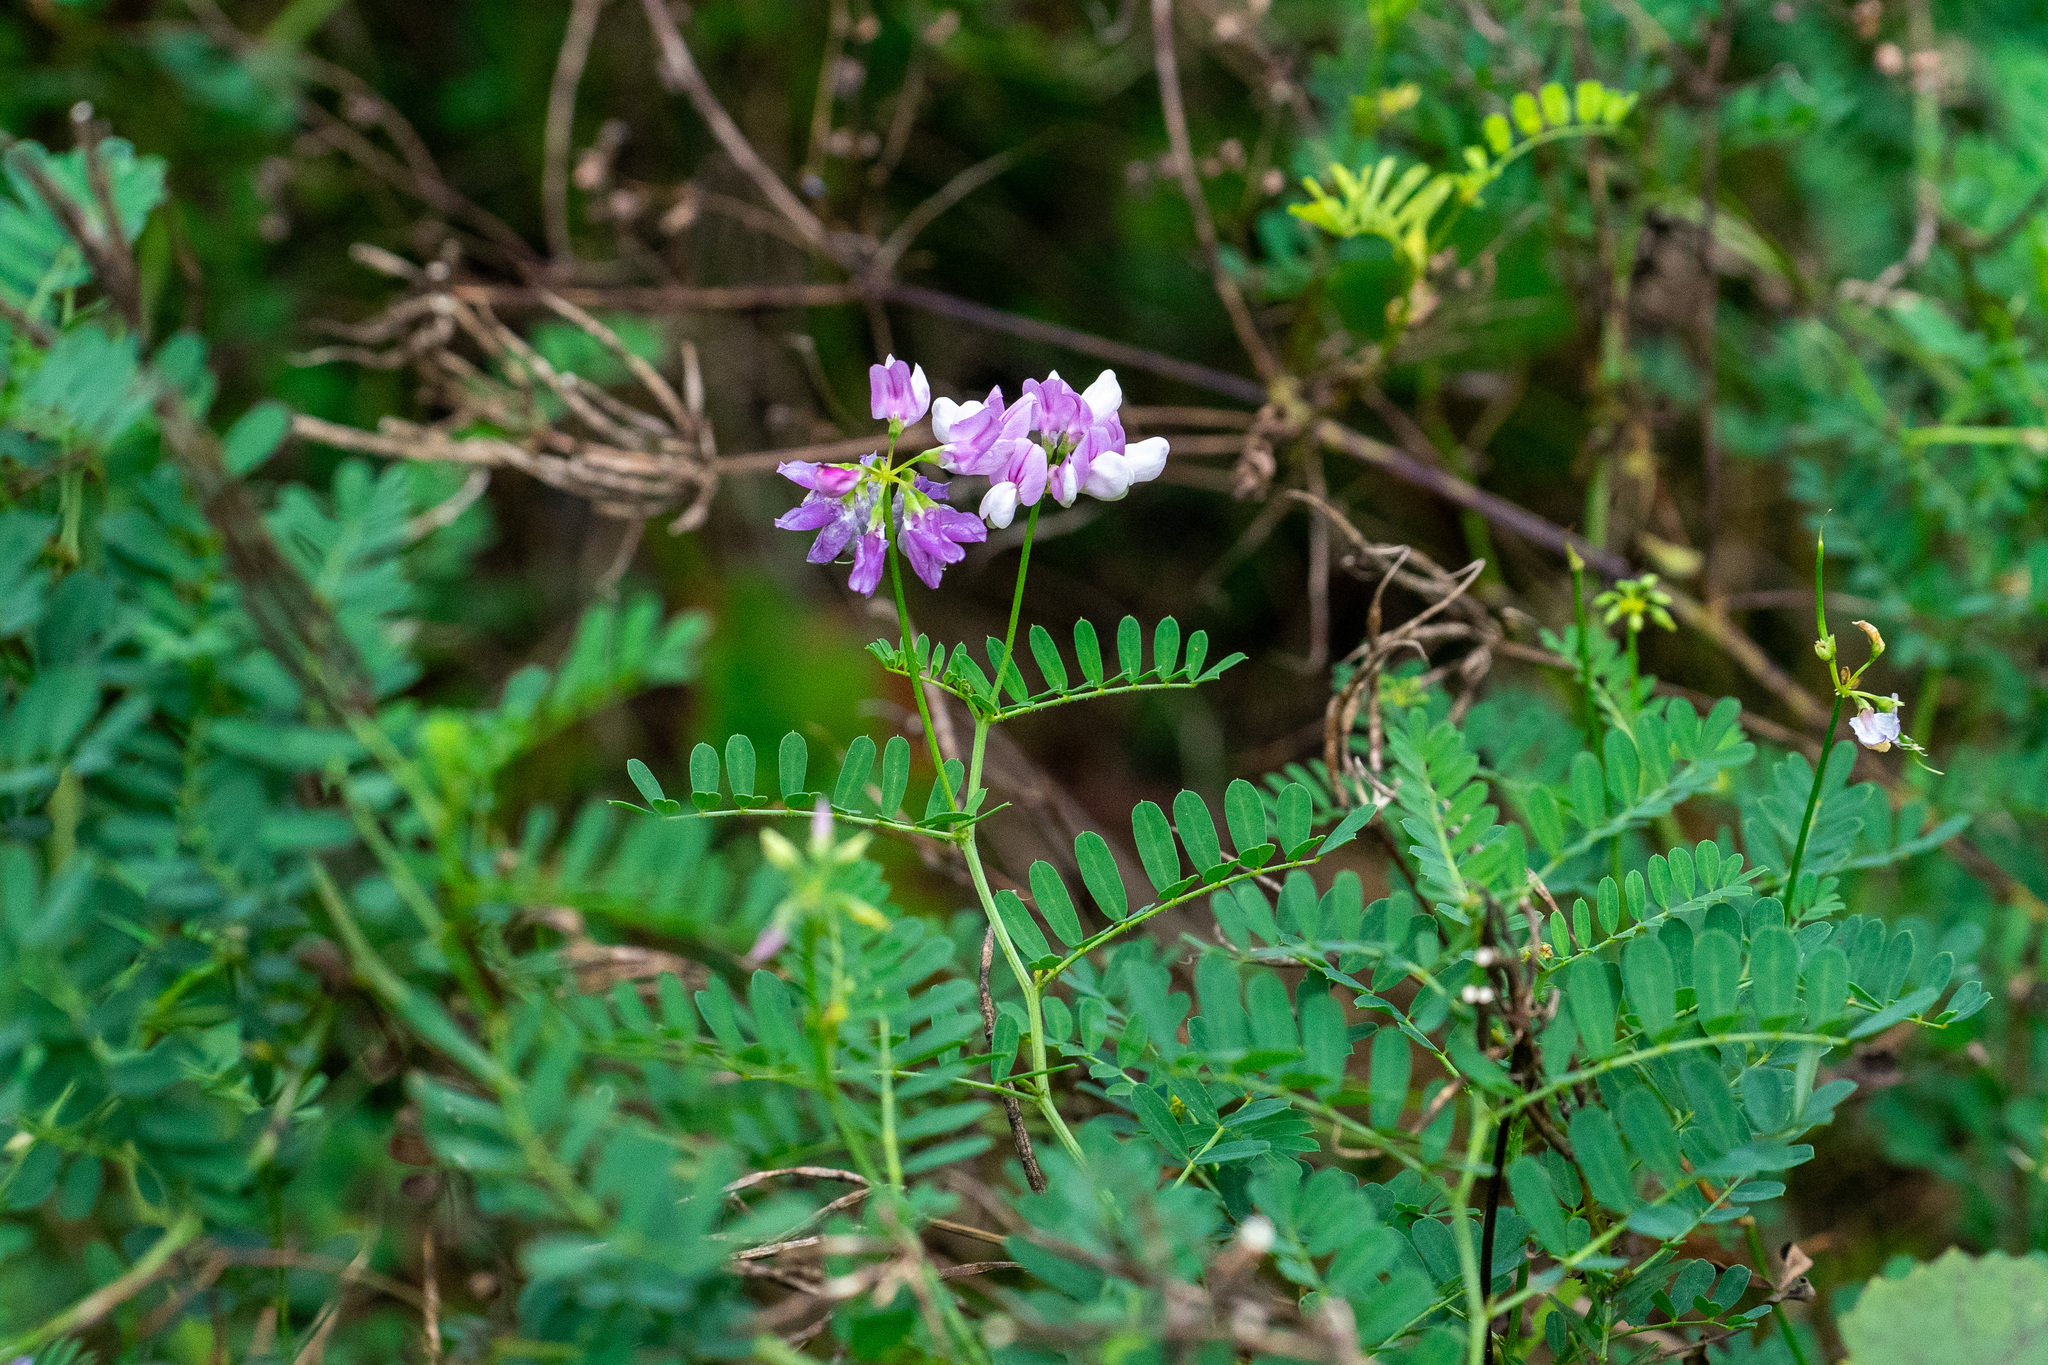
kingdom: Plantae
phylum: Tracheophyta
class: Magnoliopsida
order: Fabales
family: Fabaceae
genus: Coronilla
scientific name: Coronilla varia
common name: Crownvetch
